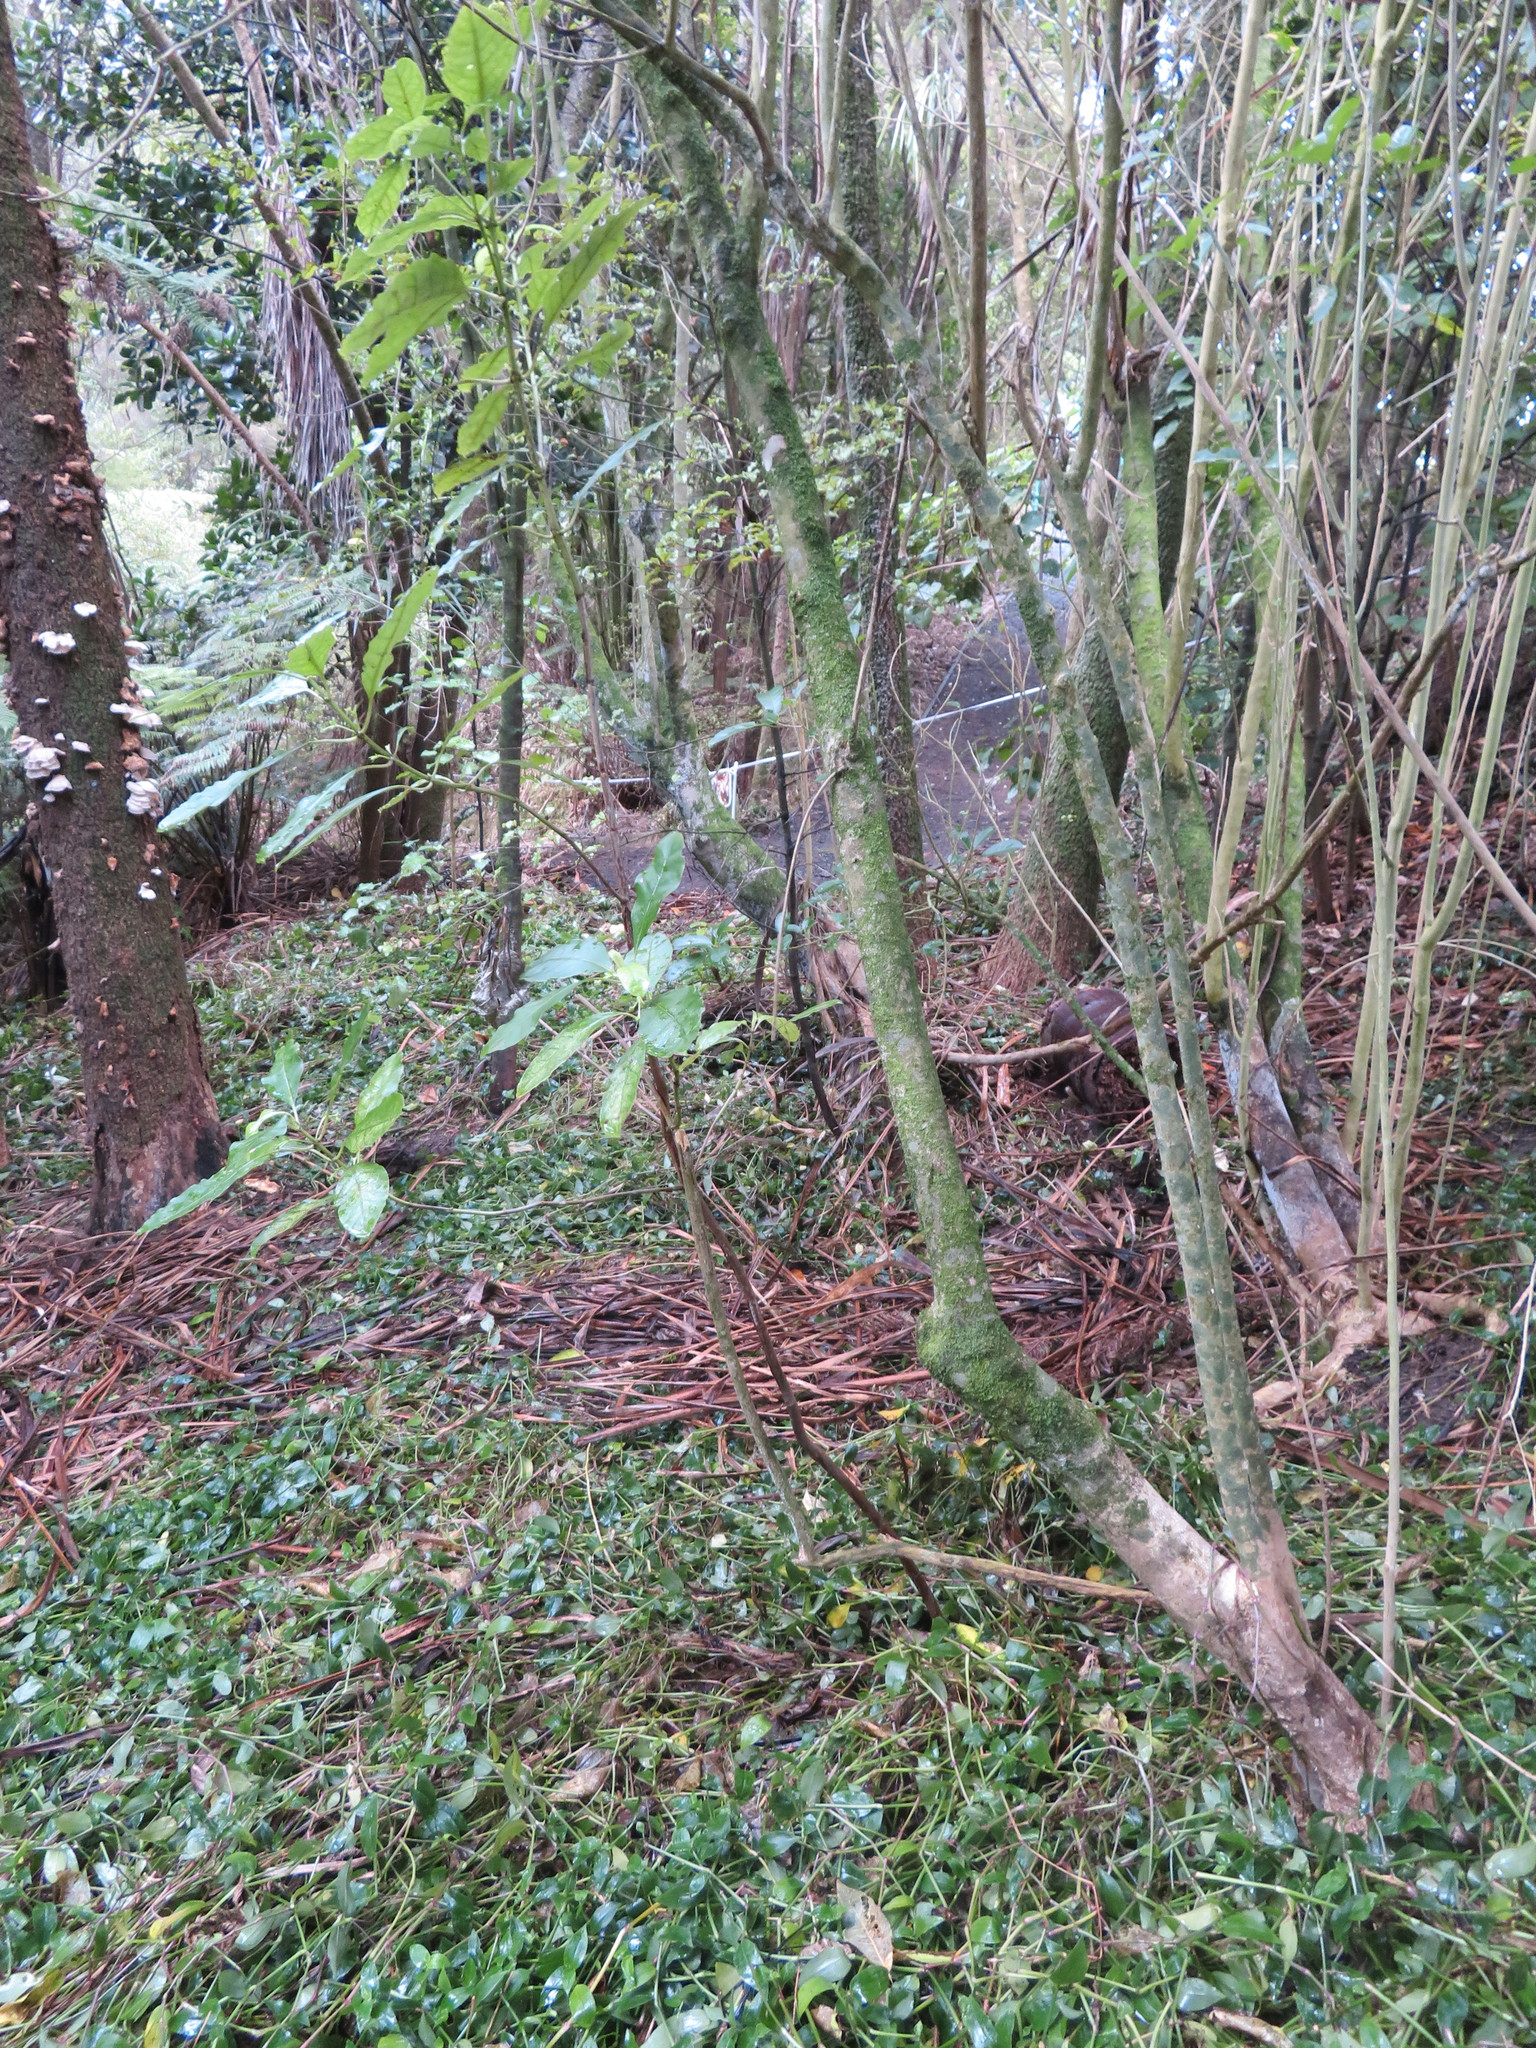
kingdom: Plantae
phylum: Tracheophyta
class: Magnoliopsida
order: Malpighiales
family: Violaceae
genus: Melicytus
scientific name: Melicytus ramiflorus
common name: Mahoe
